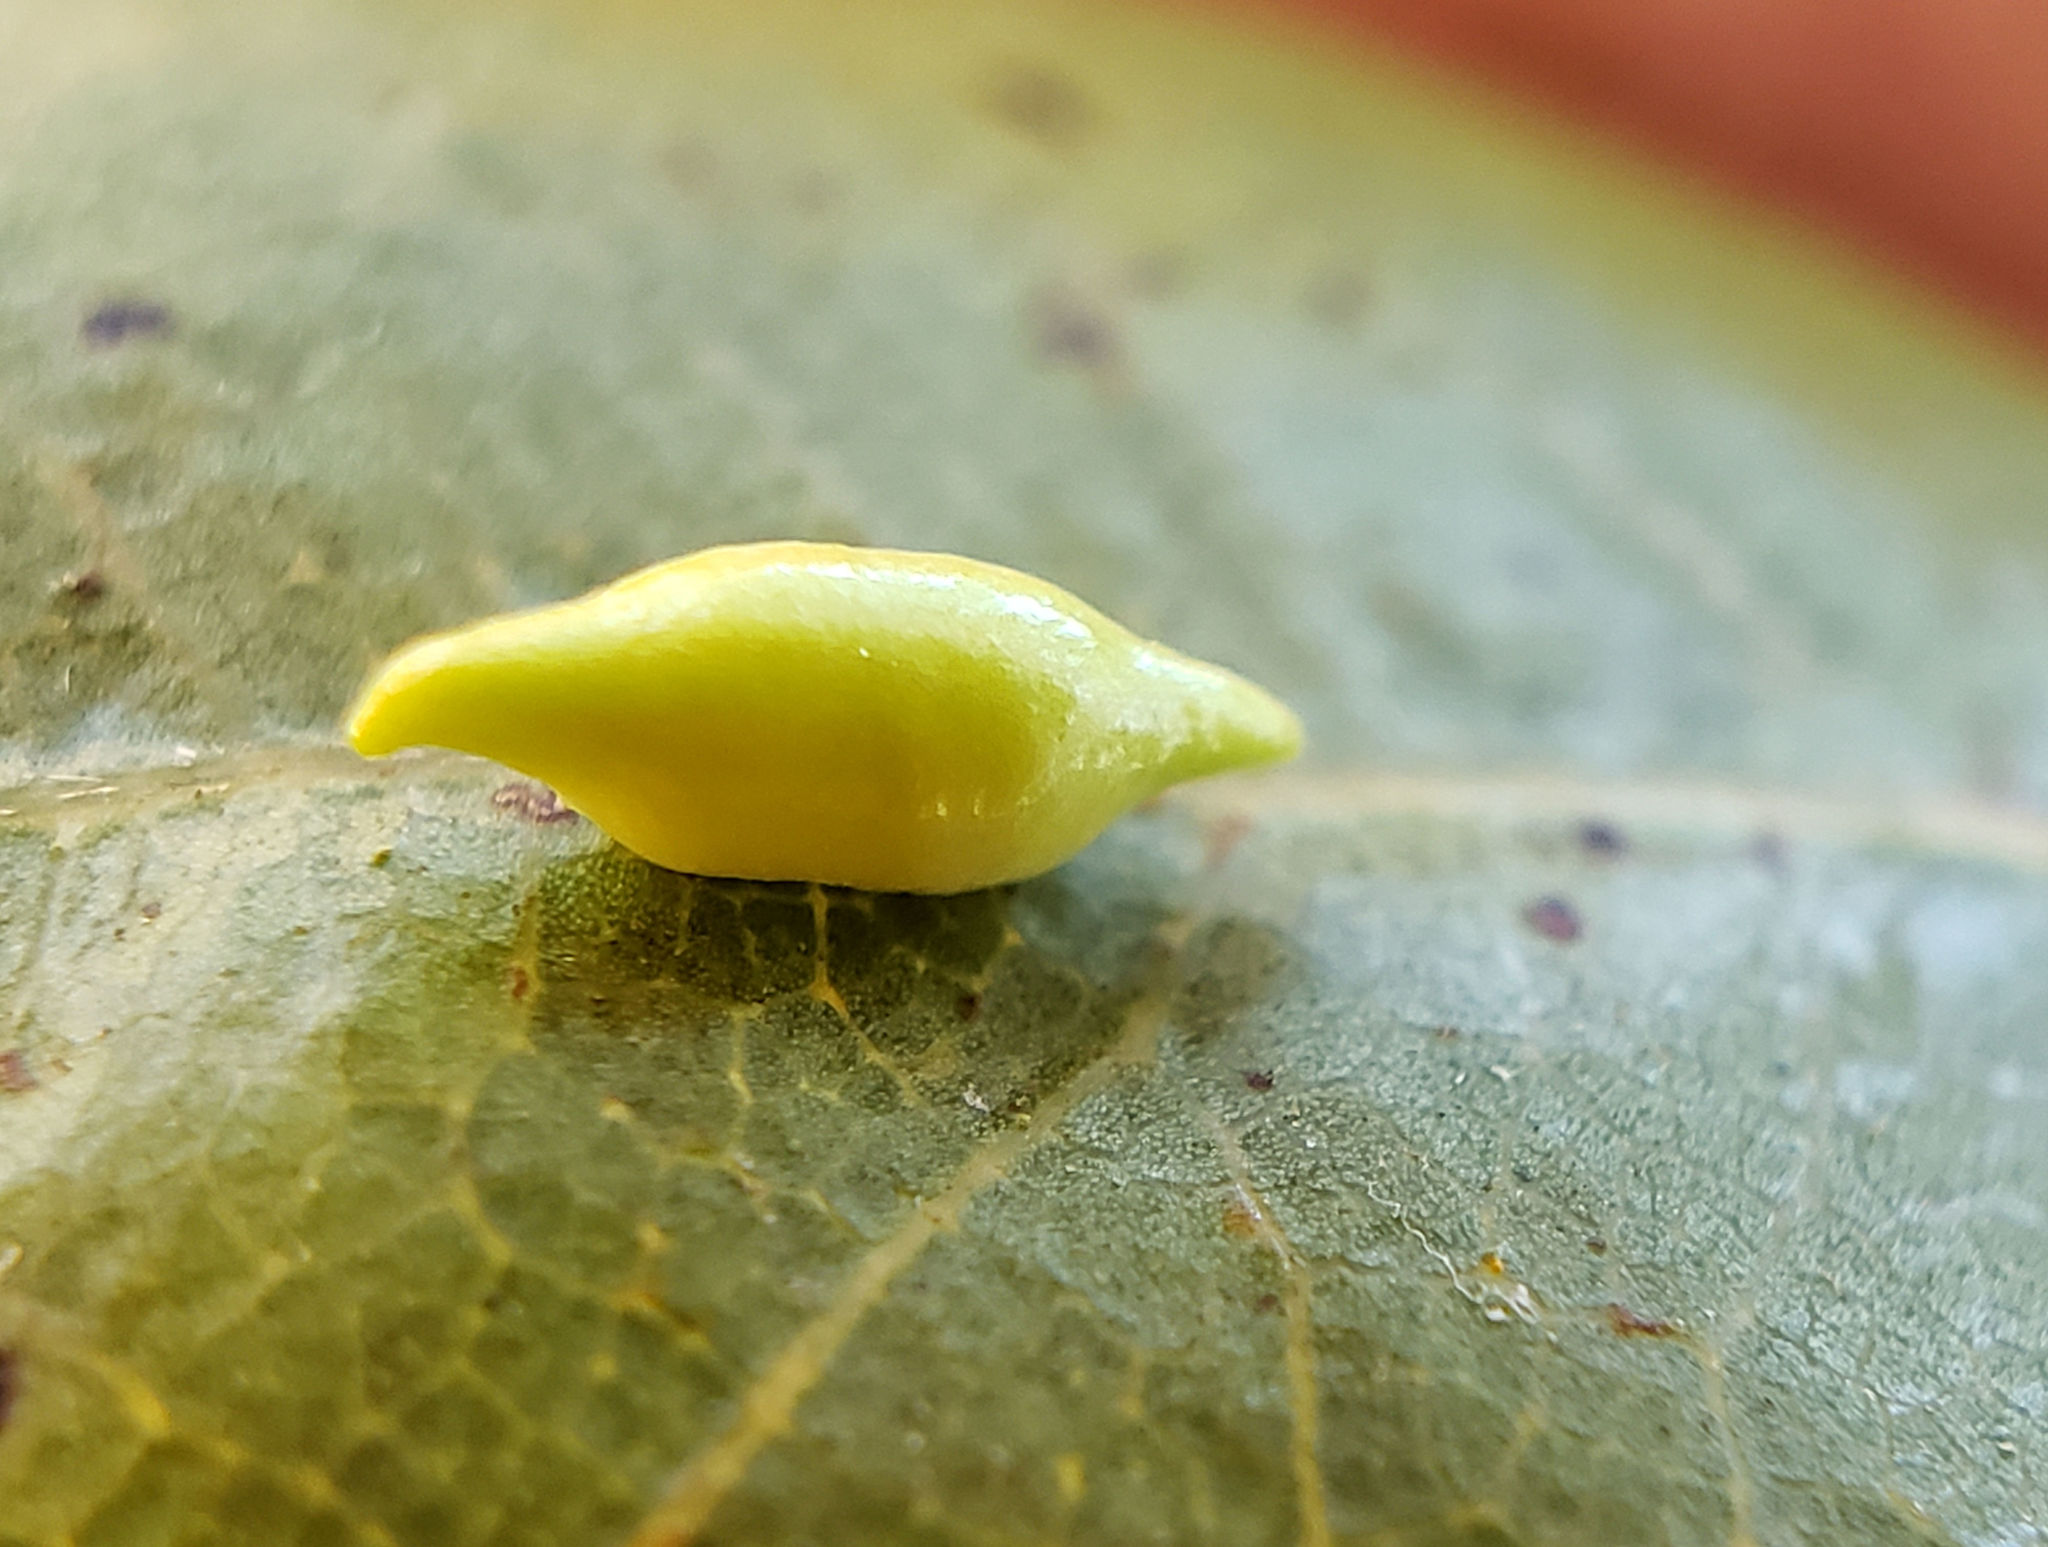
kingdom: Animalia
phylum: Arthropoda
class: Insecta
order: Hymenoptera
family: Cynipidae
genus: Dryocosmus
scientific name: Dryocosmus
